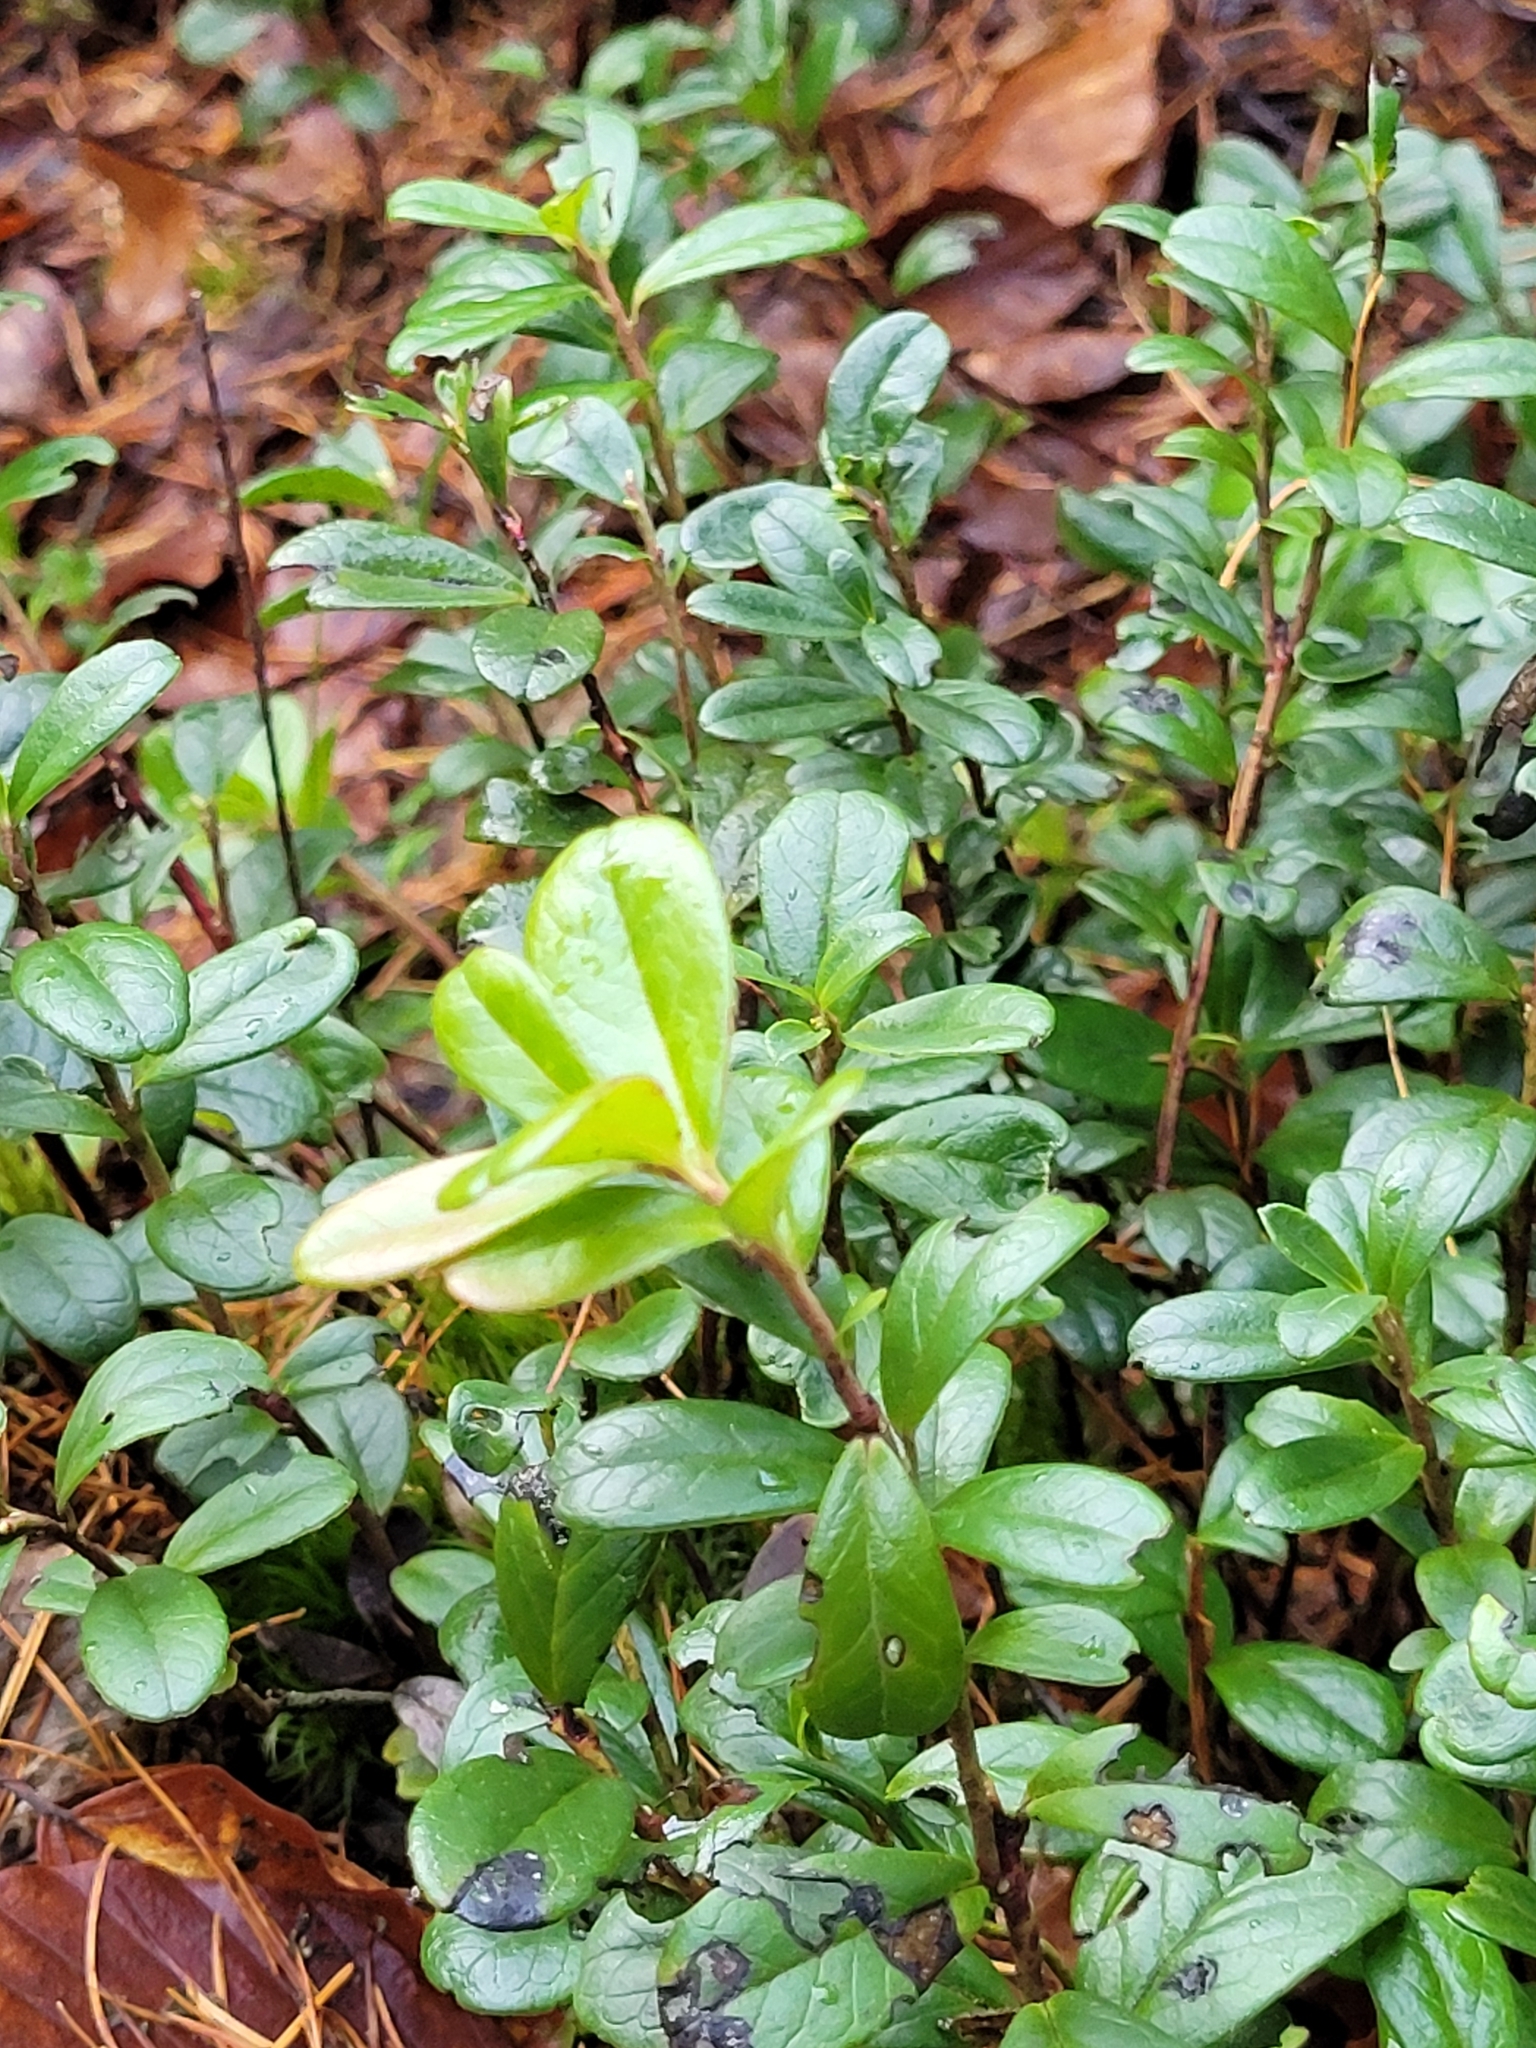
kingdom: Plantae
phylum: Tracheophyta
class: Magnoliopsida
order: Ericales
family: Ericaceae
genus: Vaccinium
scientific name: Vaccinium vitis-idaea
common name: Cowberry
